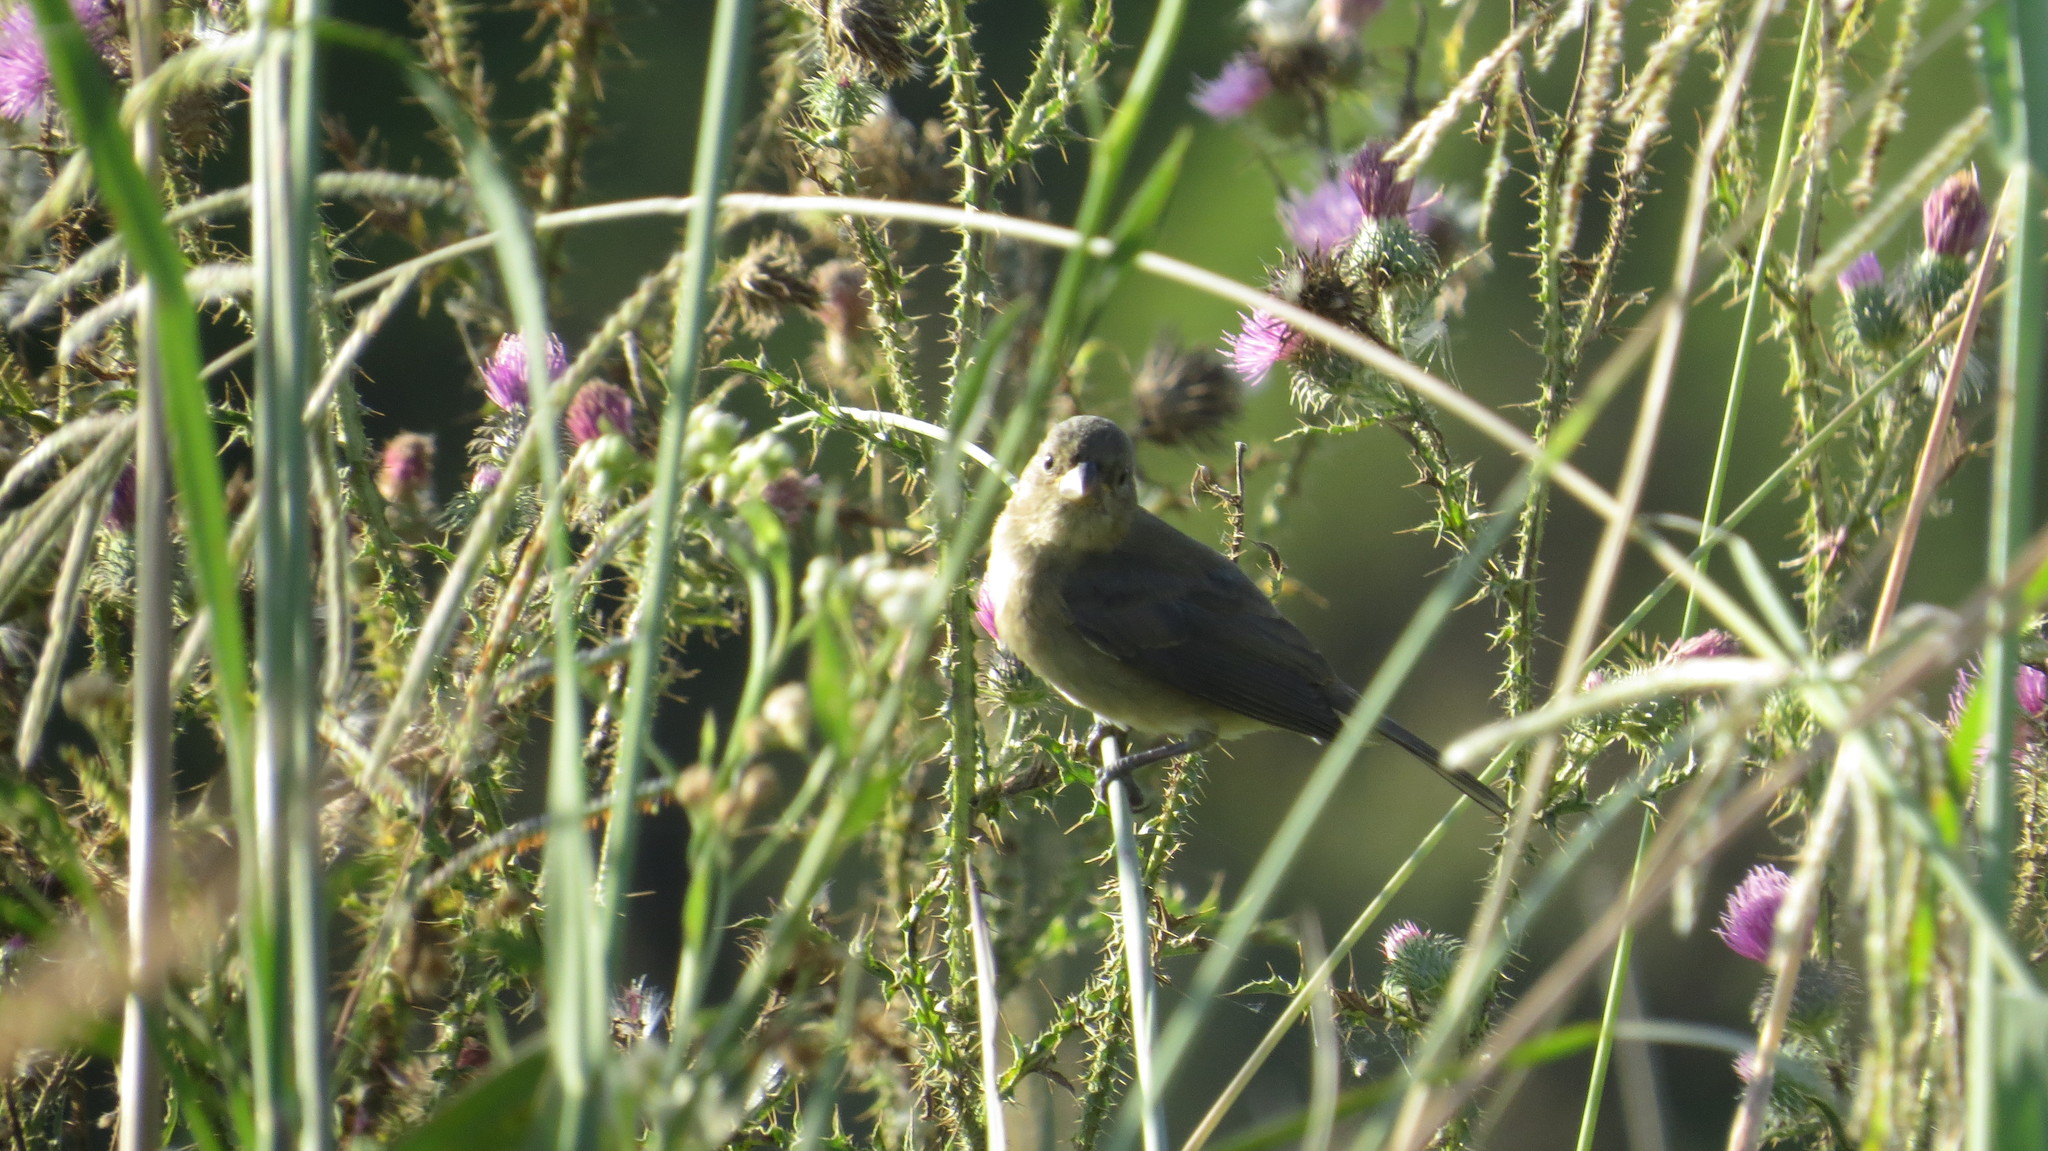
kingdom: Animalia
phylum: Chordata
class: Aves
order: Passeriformes
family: Thraupidae
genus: Sporophila
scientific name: Sporophila caerulescens
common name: Double-collared seedeater
